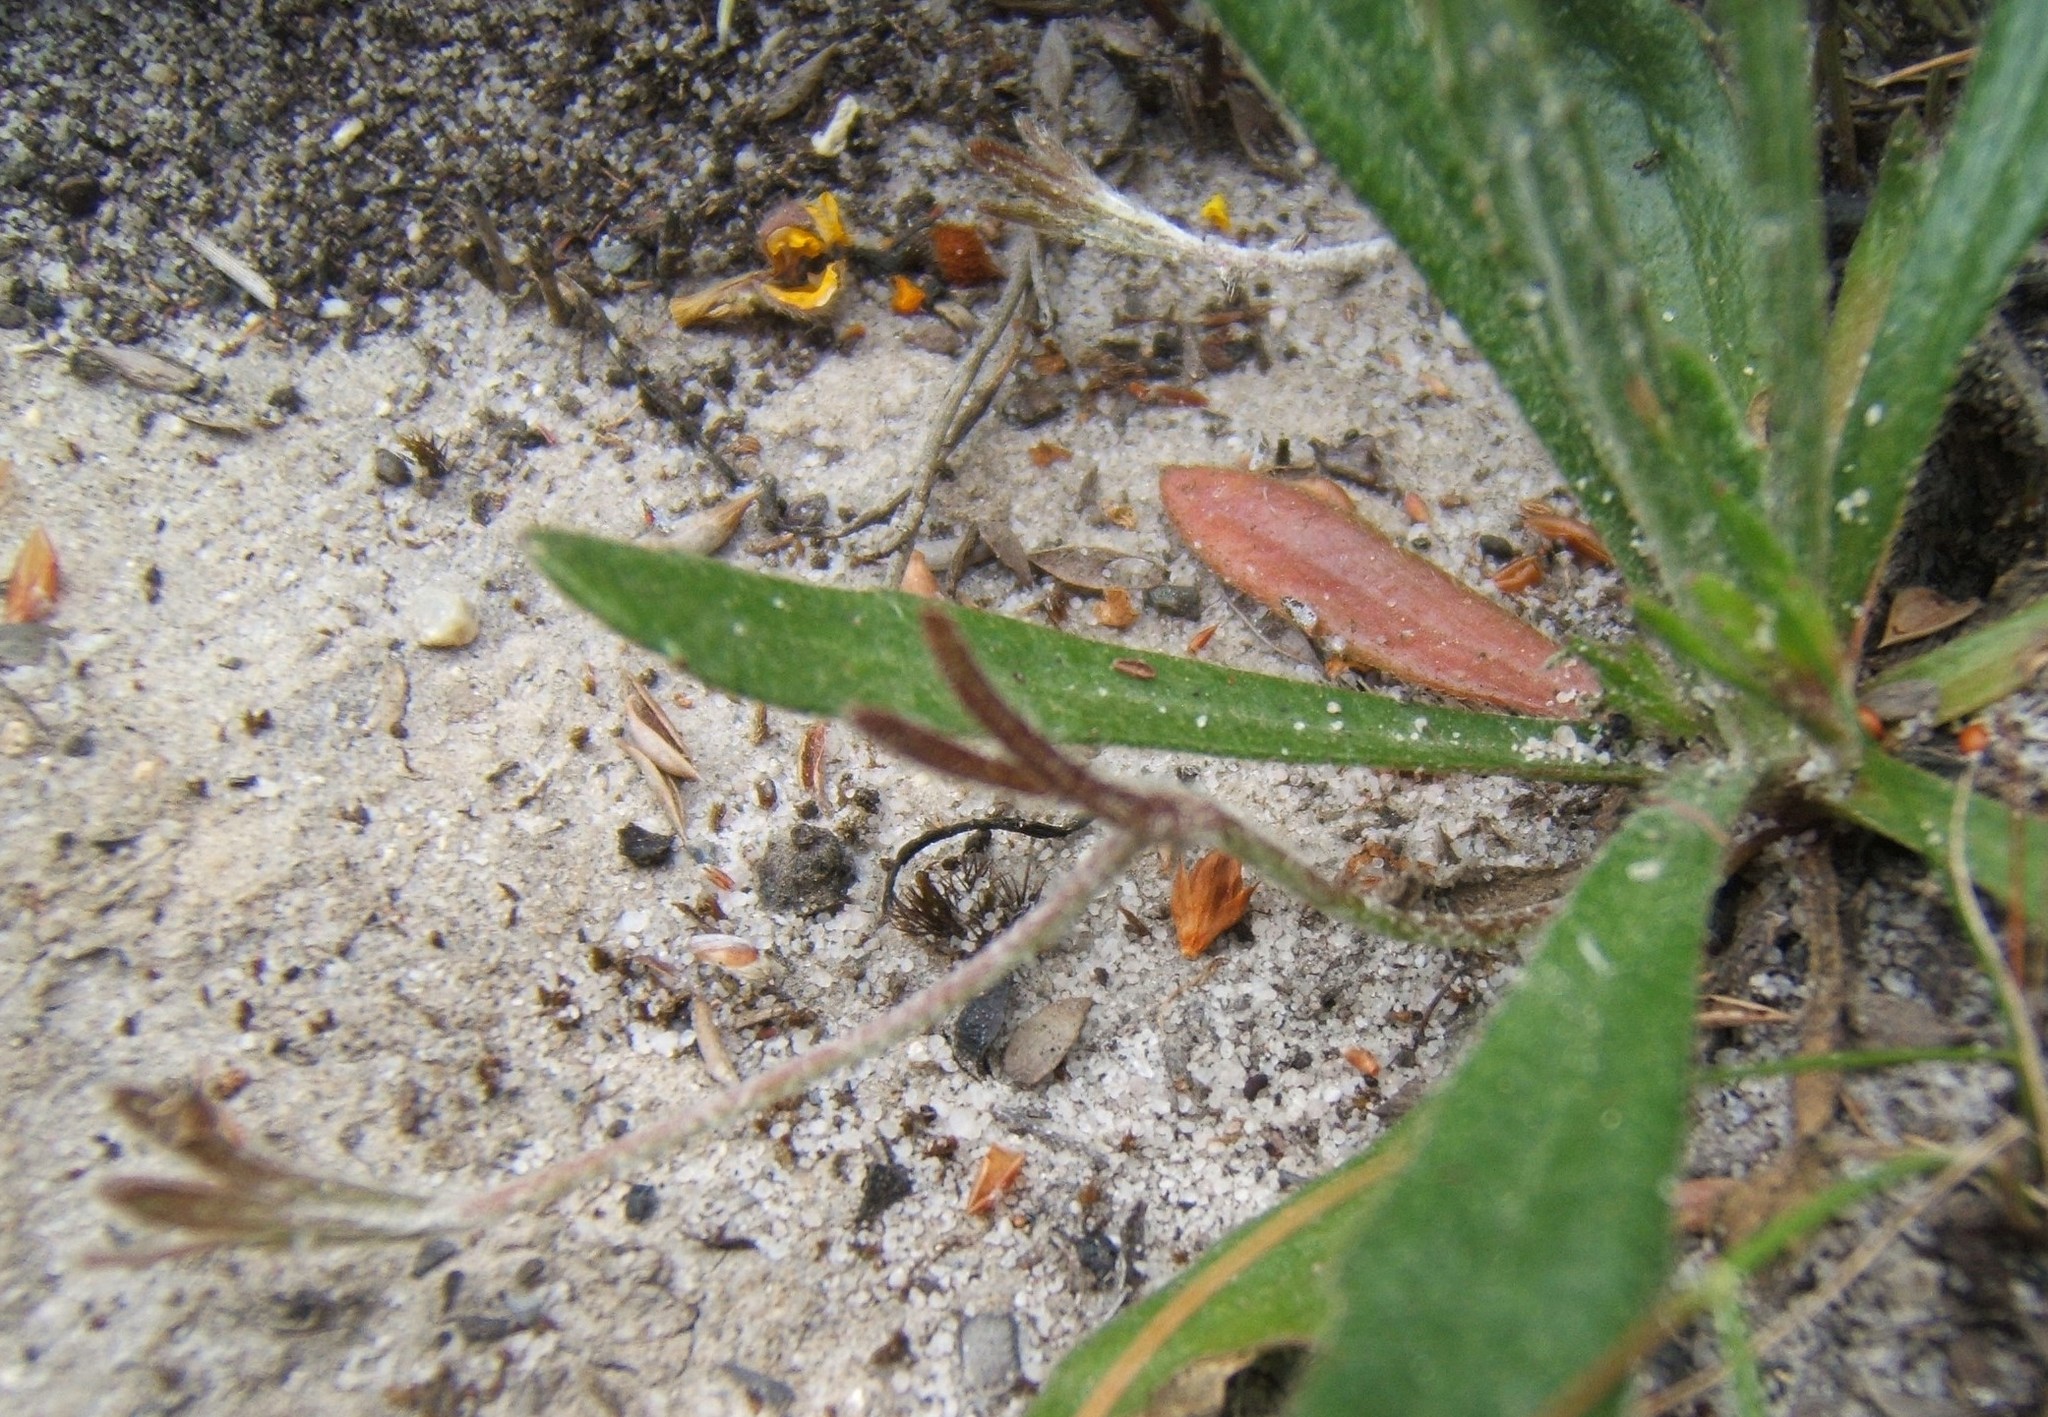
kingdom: Plantae
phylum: Tracheophyta
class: Magnoliopsida
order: Asterales
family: Goodeniaceae
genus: Goodenia
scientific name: Goodenia geniculata
